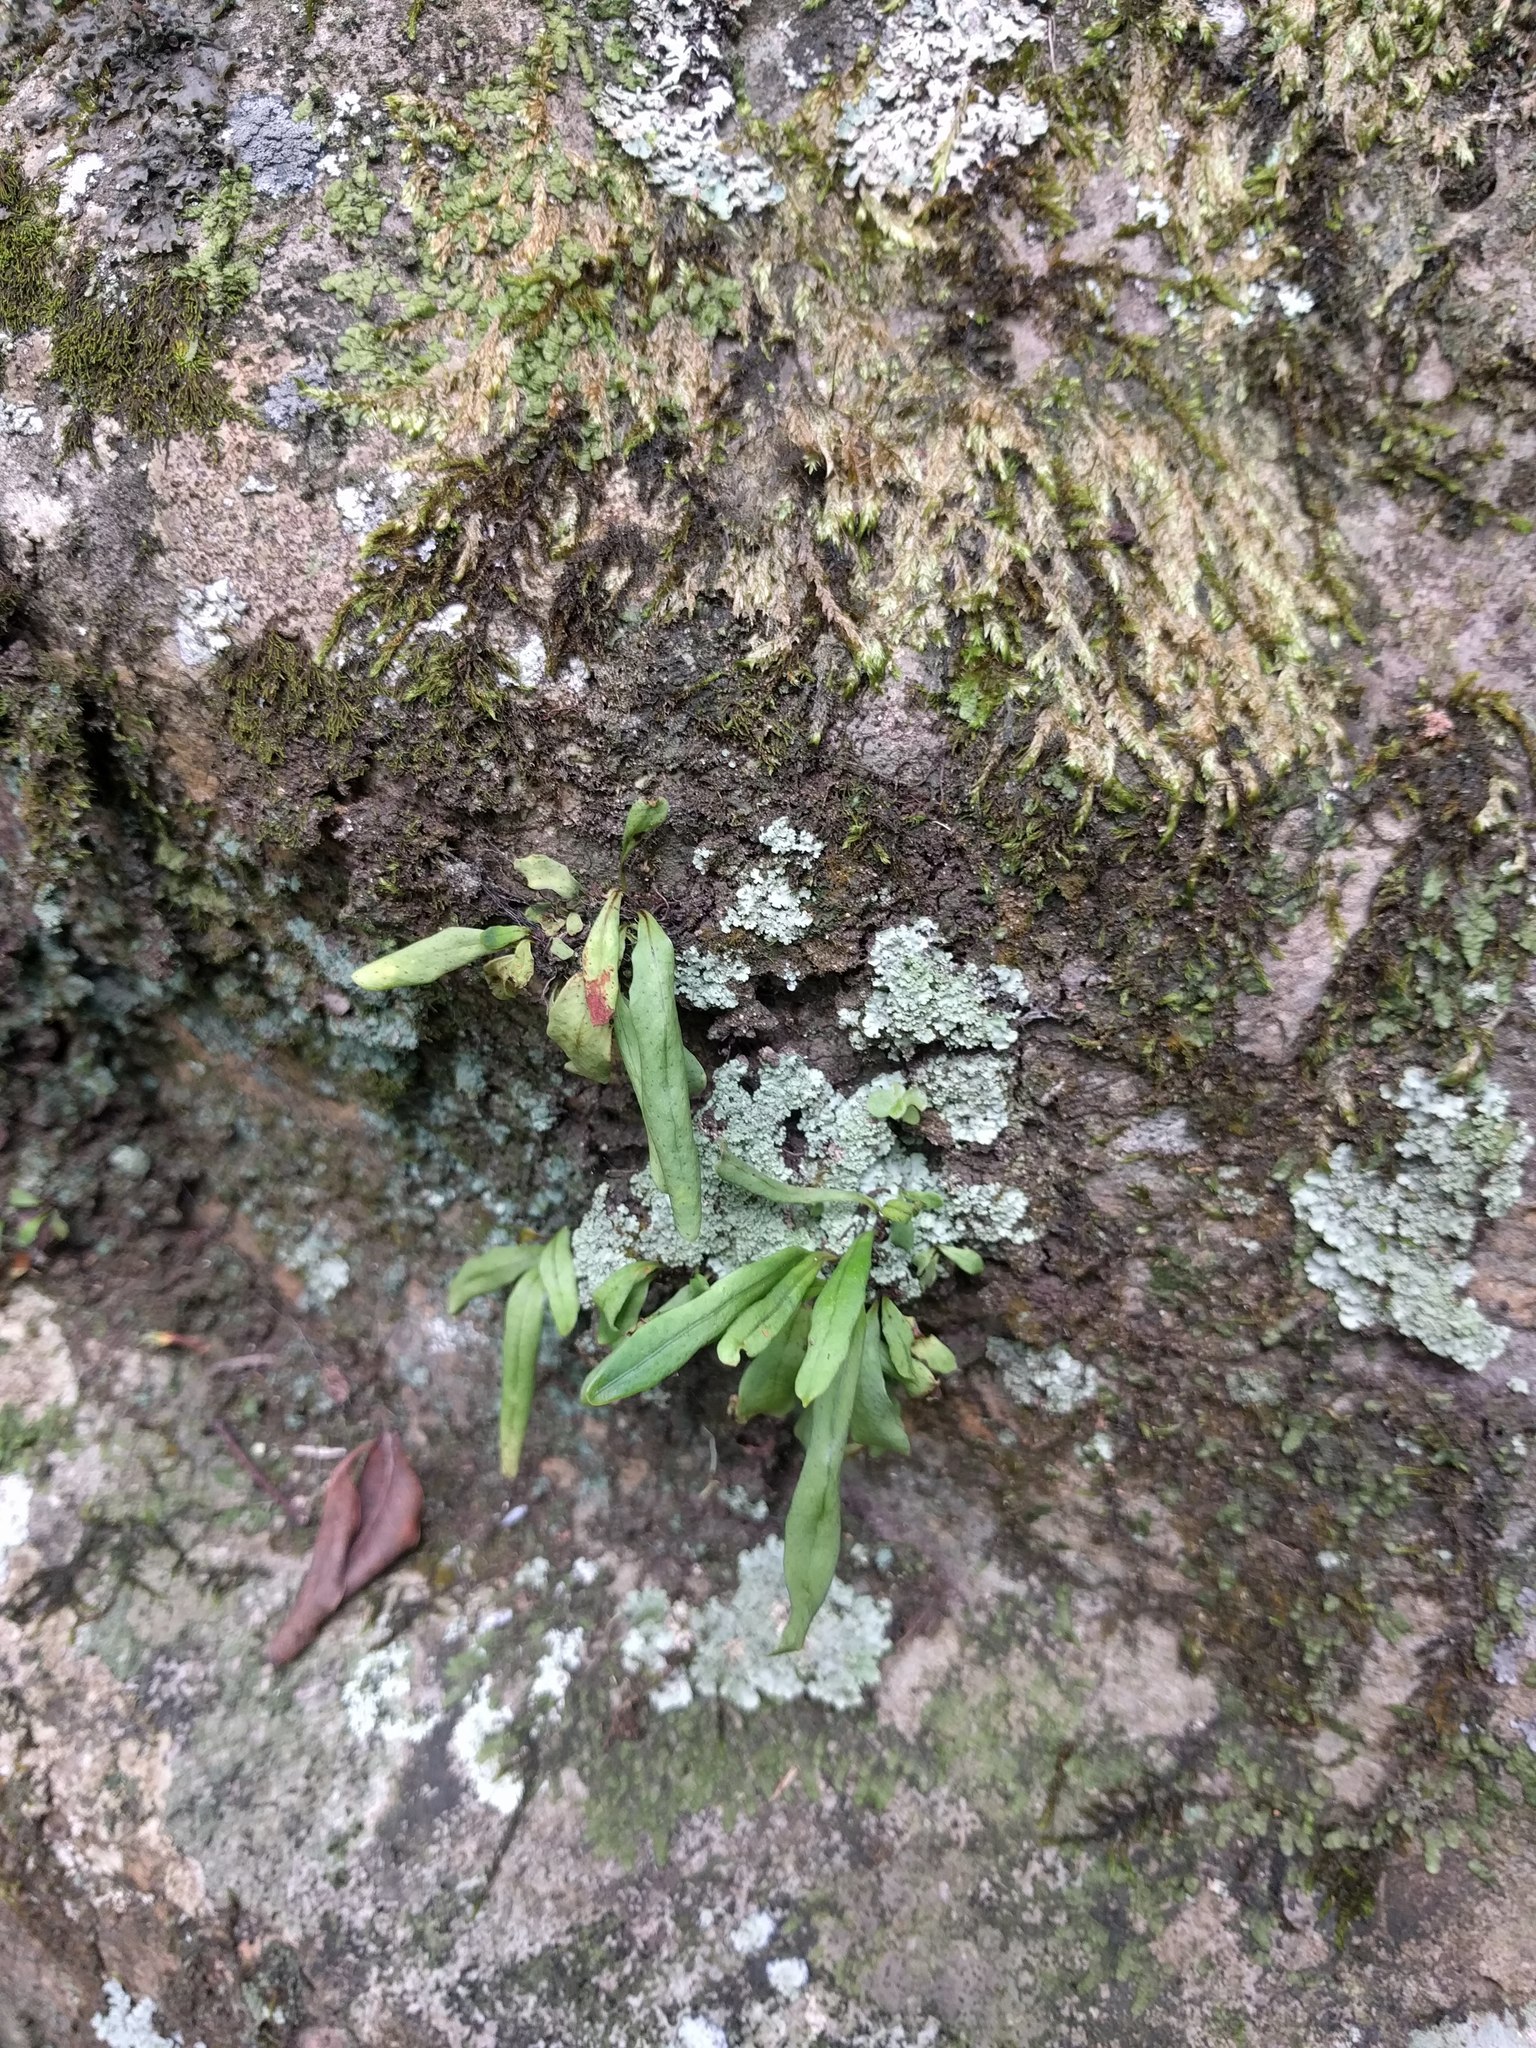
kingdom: Plantae
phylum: Tracheophyta
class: Polypodiopsida
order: Polypodiales
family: Polypodiaceae
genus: Lepisorus
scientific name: Lepisorus thunbergianus
